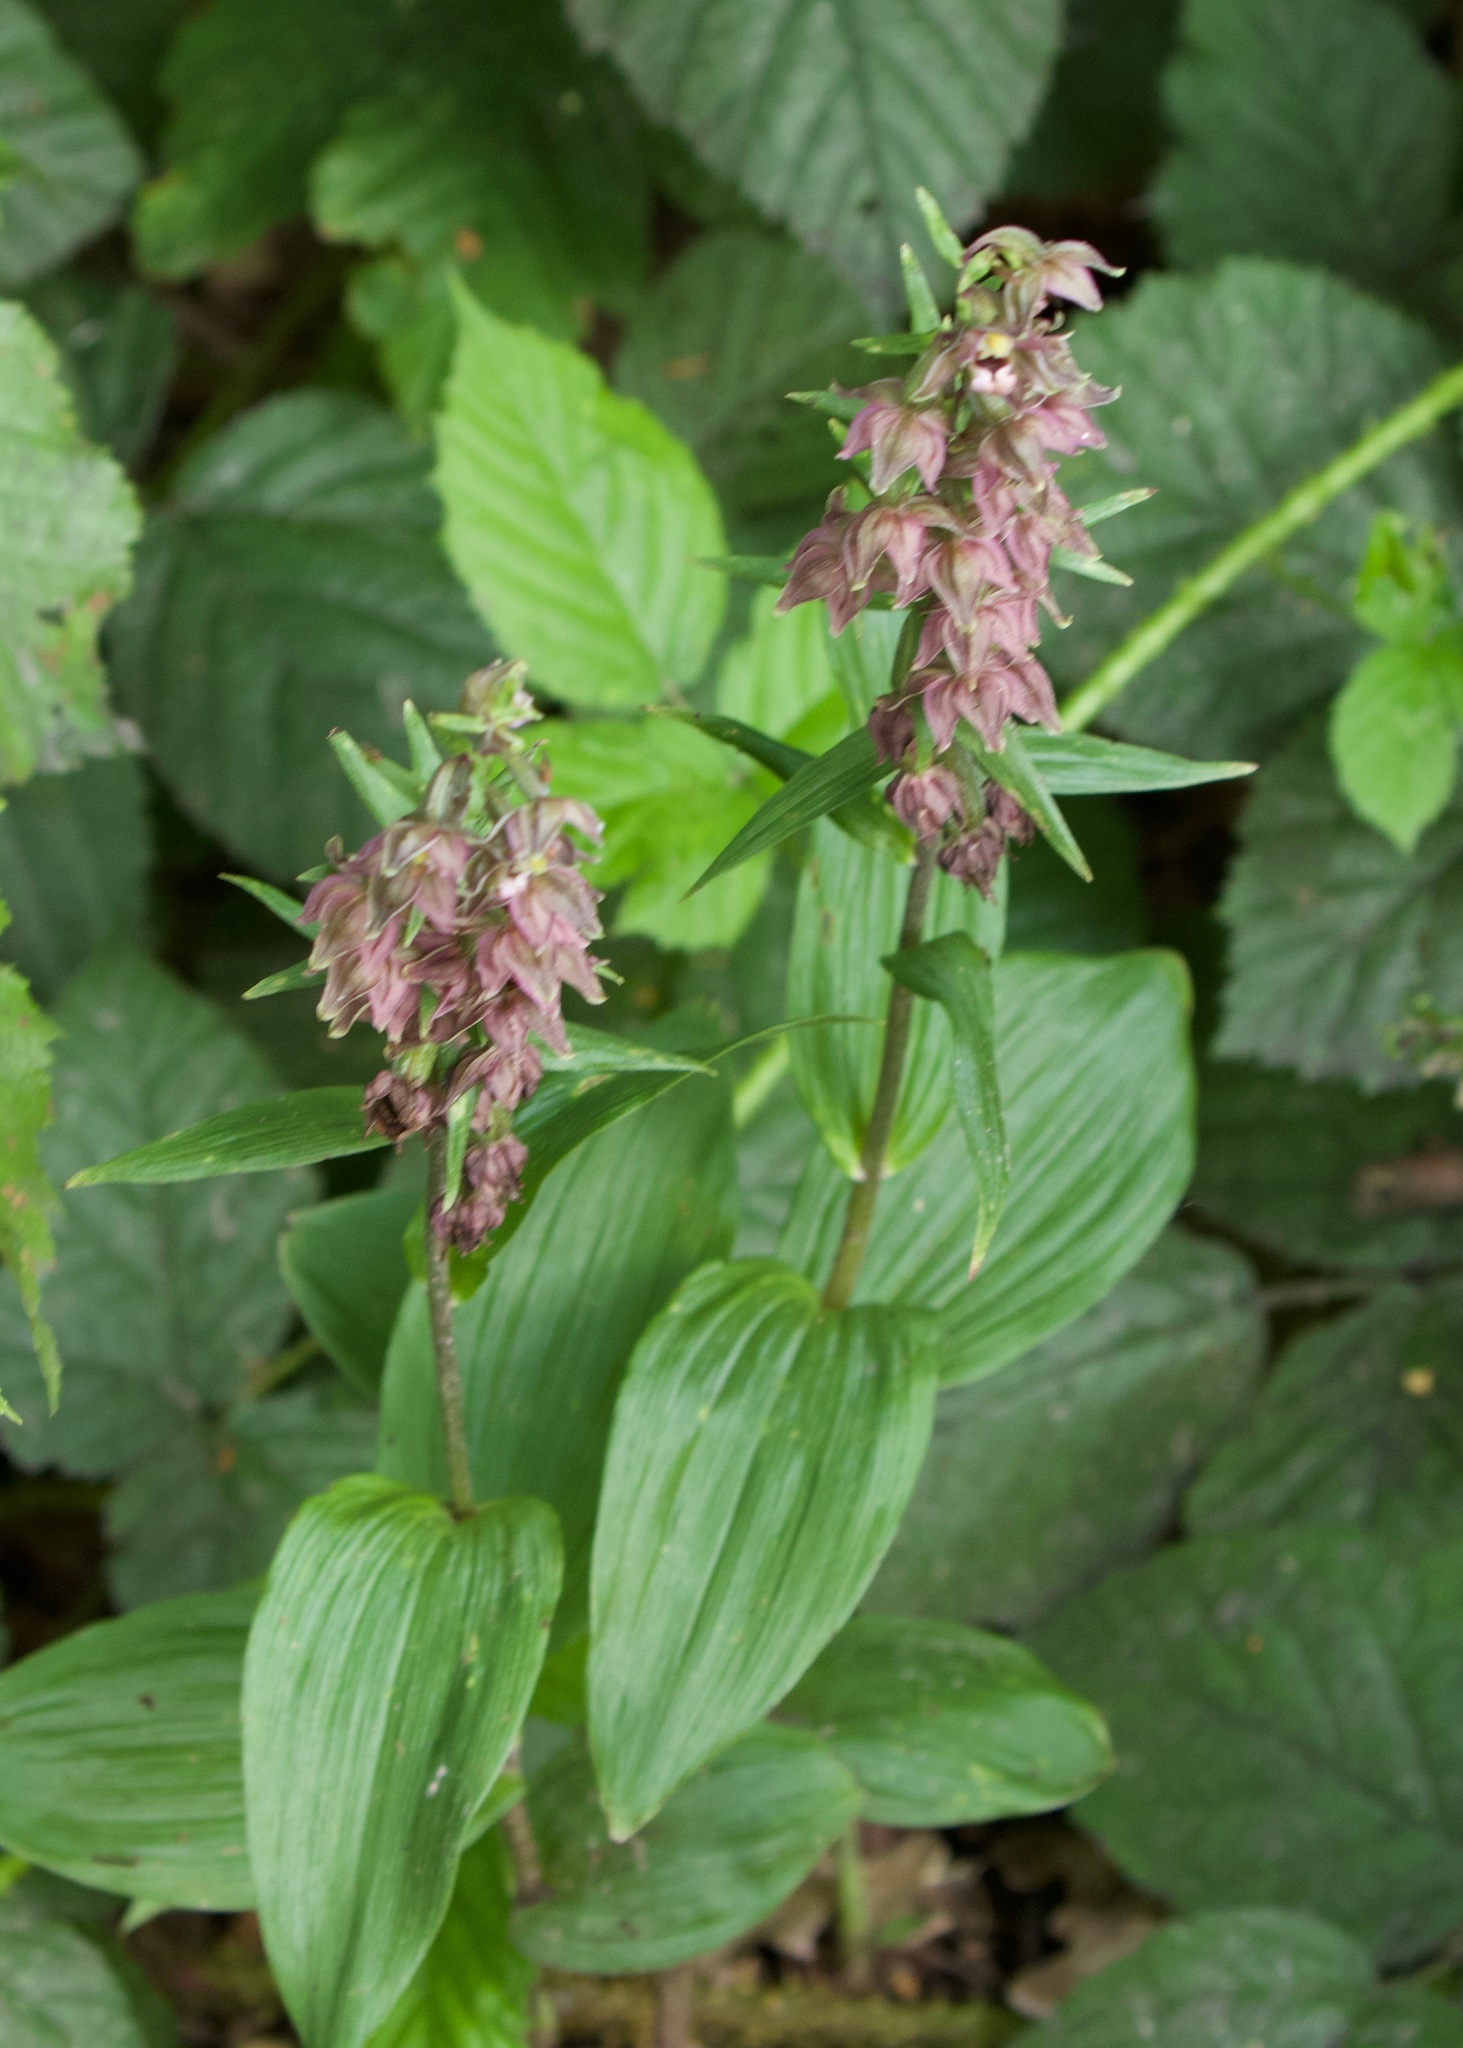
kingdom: Plantae
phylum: Tracheophyta
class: Liliopsida
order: Asparagales
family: Orchidaceae
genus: Epipactis
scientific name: Epipactis helleborine
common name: Broad-leaved helleborine
